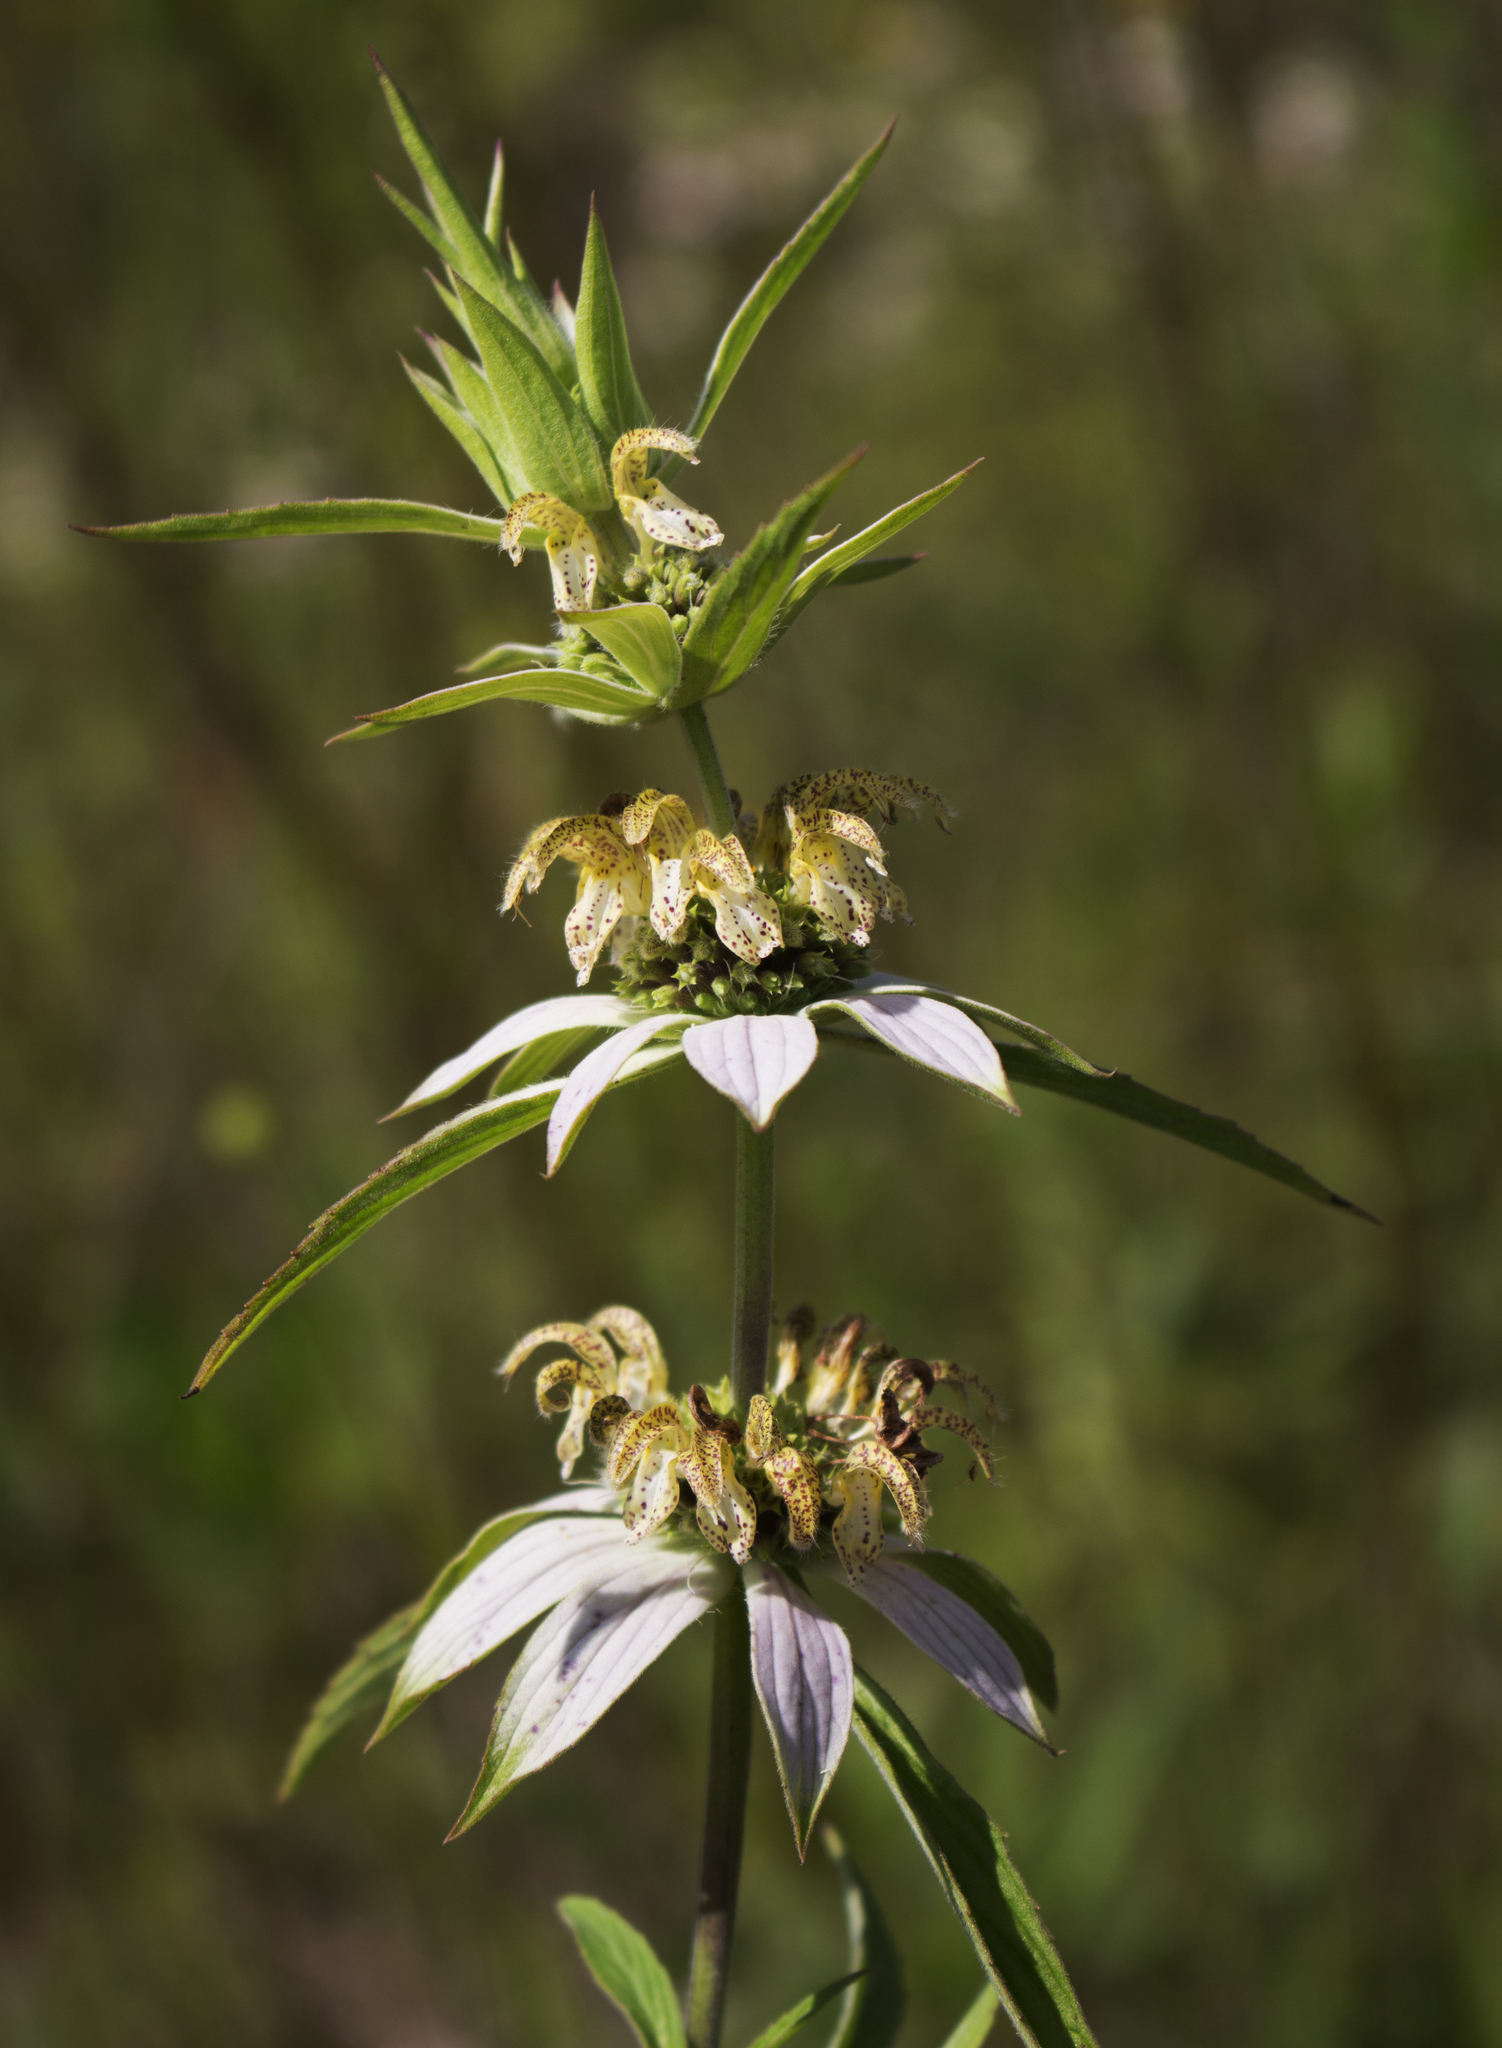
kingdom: Plantae
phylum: Tracheophyta
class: Magnoliopsida
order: Lamiales
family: Lamiaceae
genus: Monarda
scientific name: Monarda punctata
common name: Dotted monarda
